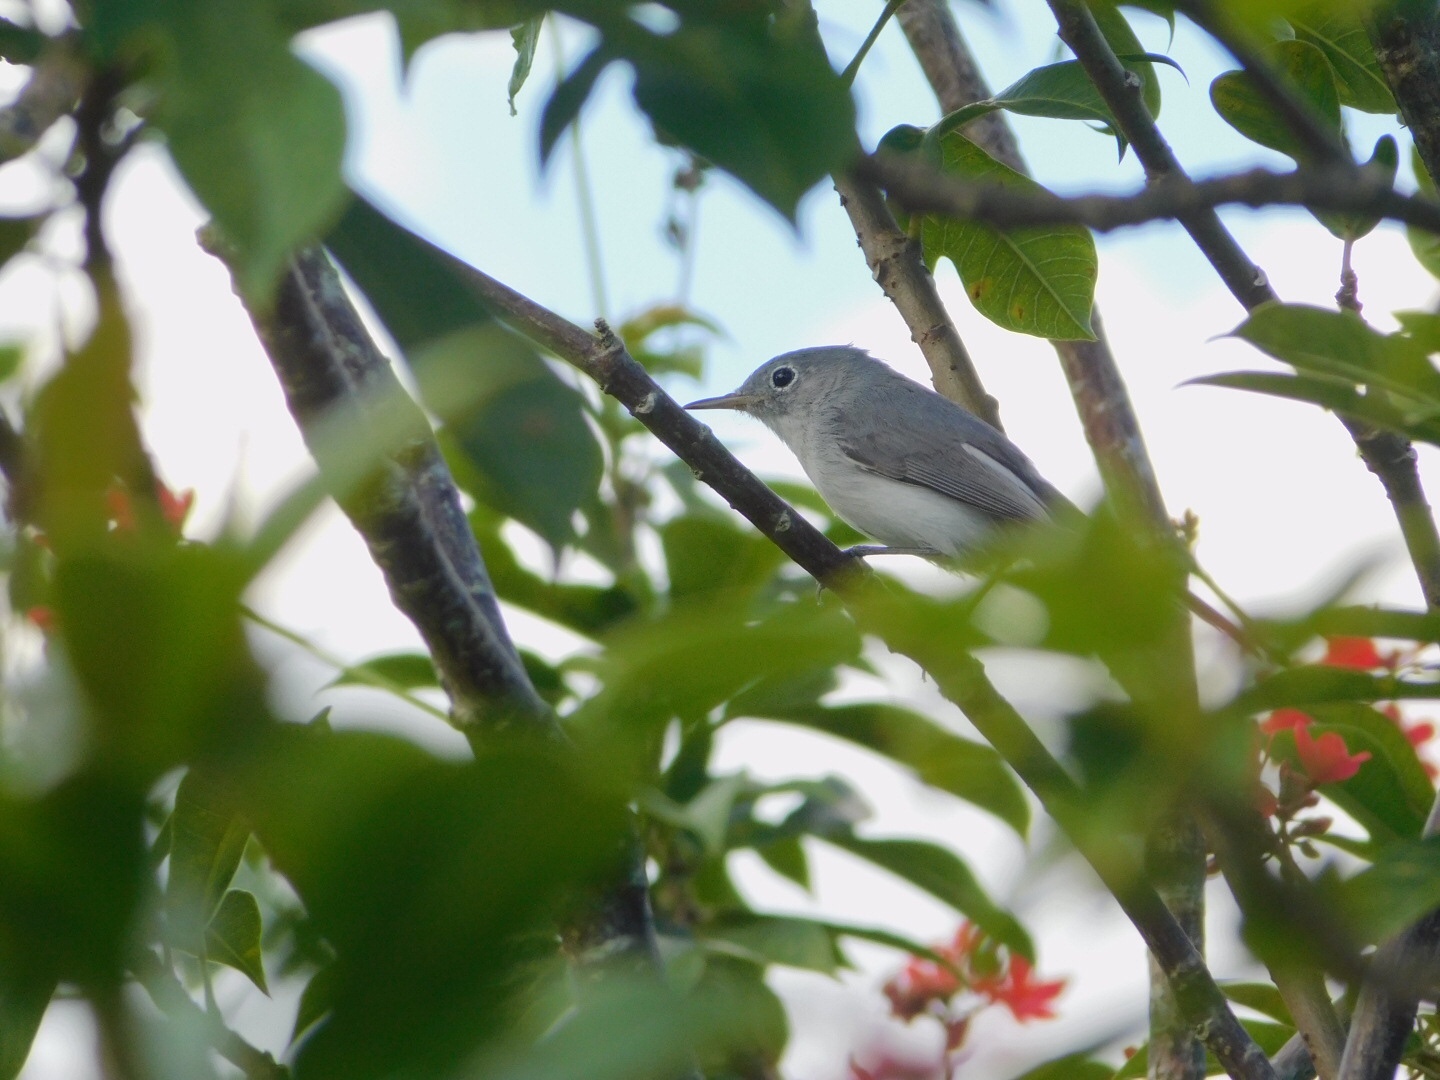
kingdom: Animalia
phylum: Chordata
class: Aves
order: Passeriformes
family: Polioptilidae
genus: Polioptila
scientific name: Polioptila caerulea
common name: Blue-gray gnatcatcher
